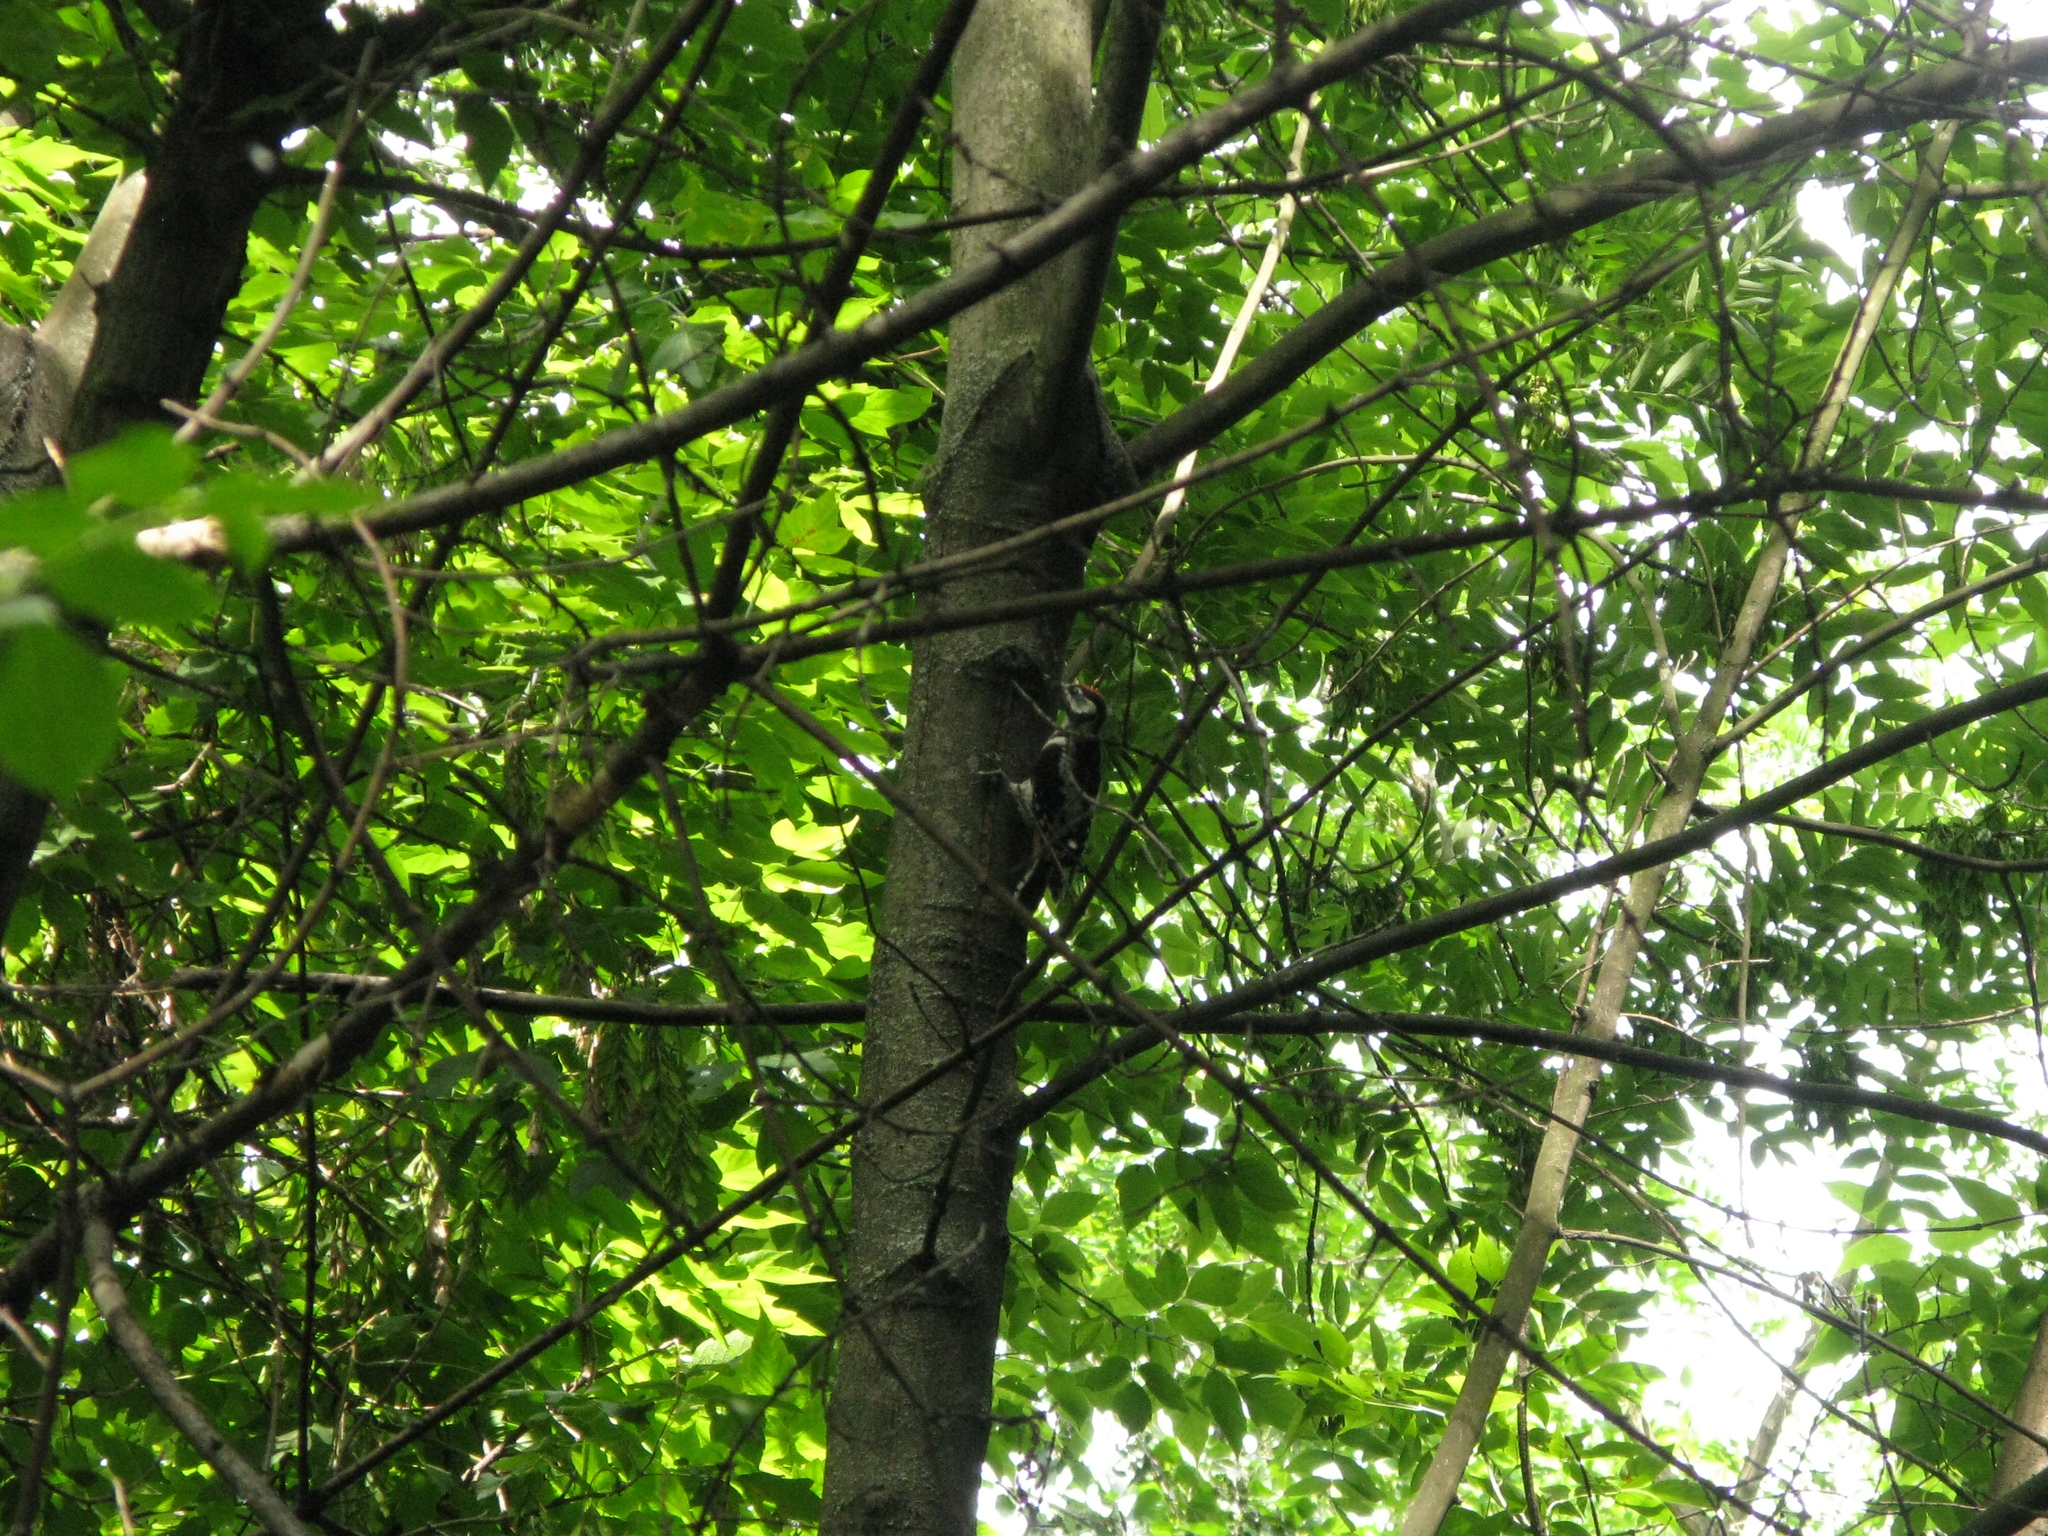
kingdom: Animalia
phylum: Chordata
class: Aves
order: Piciformes
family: Picidae
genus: Dendrocopos
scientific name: Dendrocopos major
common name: Great spotted woodpecker
